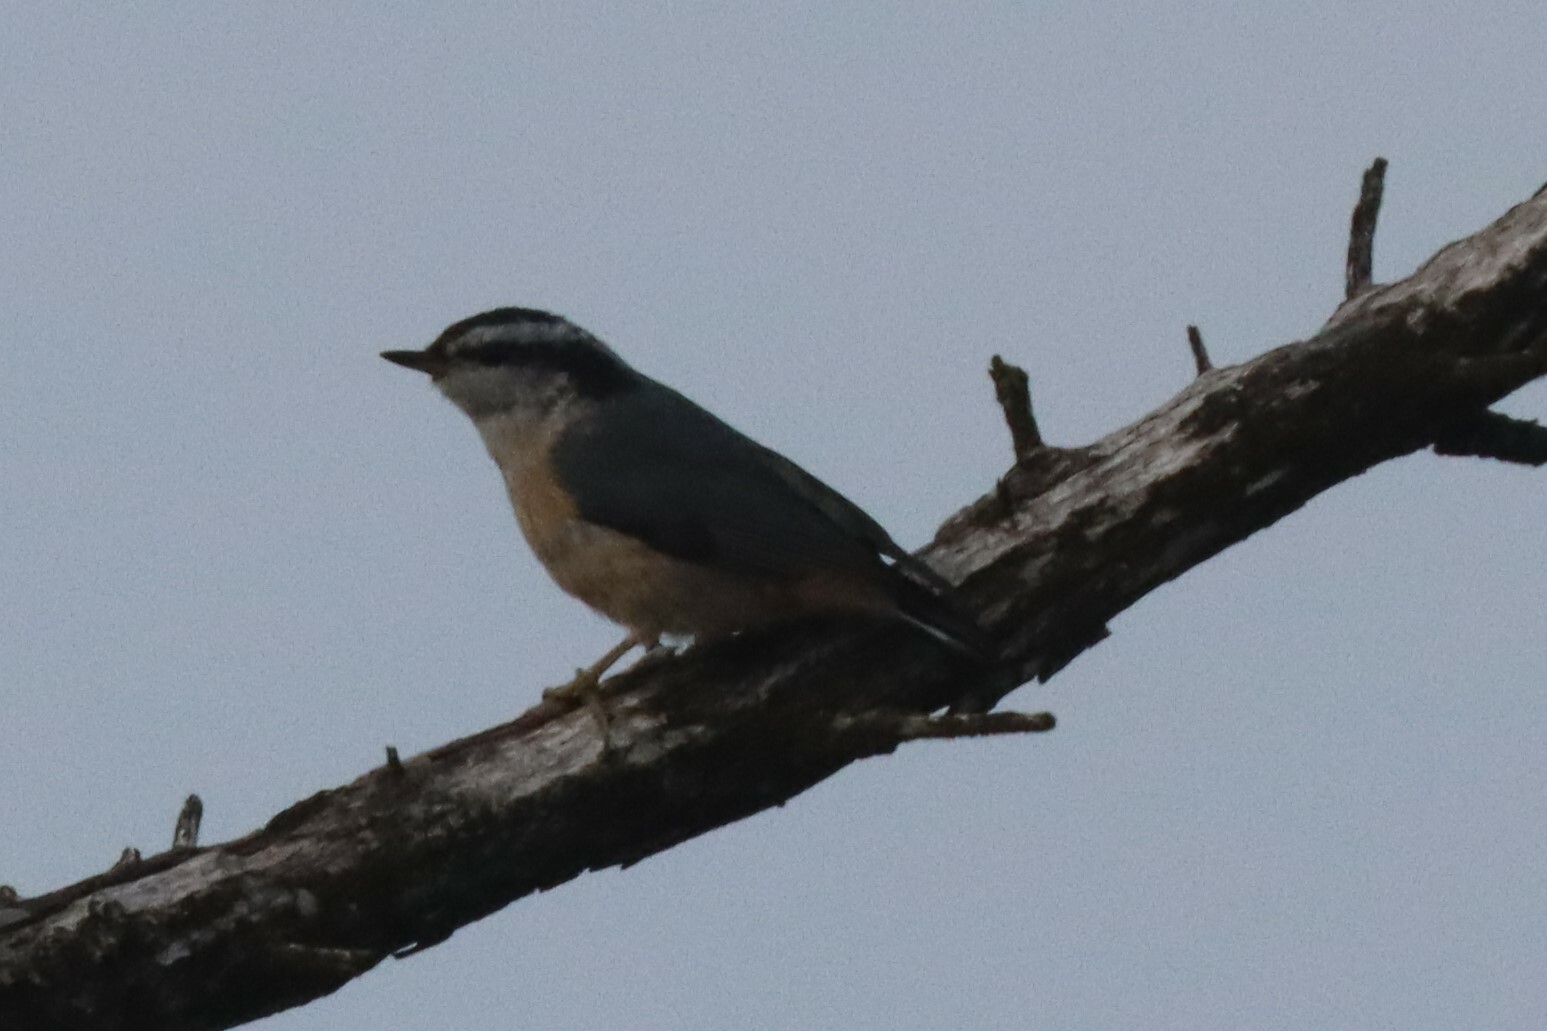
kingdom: Animalia
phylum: Chordata
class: Aves
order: Passeriformes
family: Sittidae
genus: Sitta
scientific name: Sitta canadensis
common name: Red-breasted nuthatch
